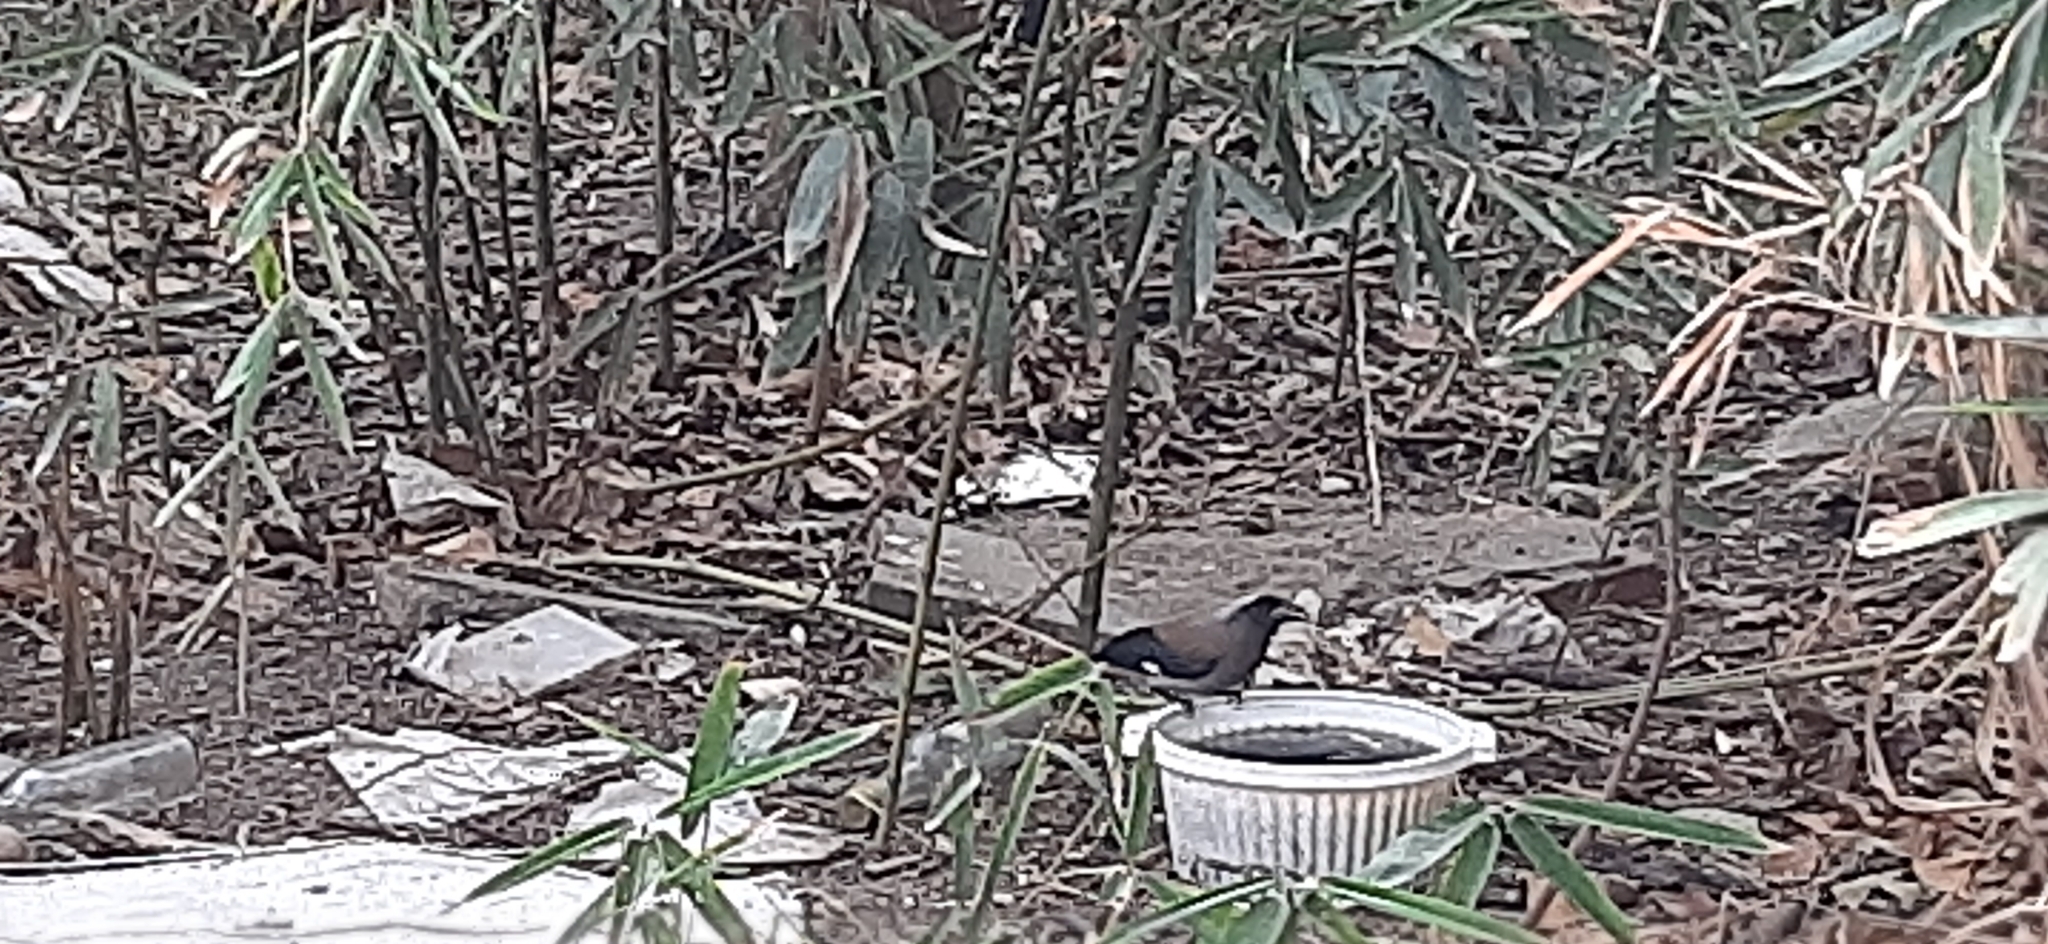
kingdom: Animalia
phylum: Chordata
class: Aves
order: Passeriformes
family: Corvidae
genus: Dendrocitta
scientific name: Dendrocitta formosae
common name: Grey treepie
